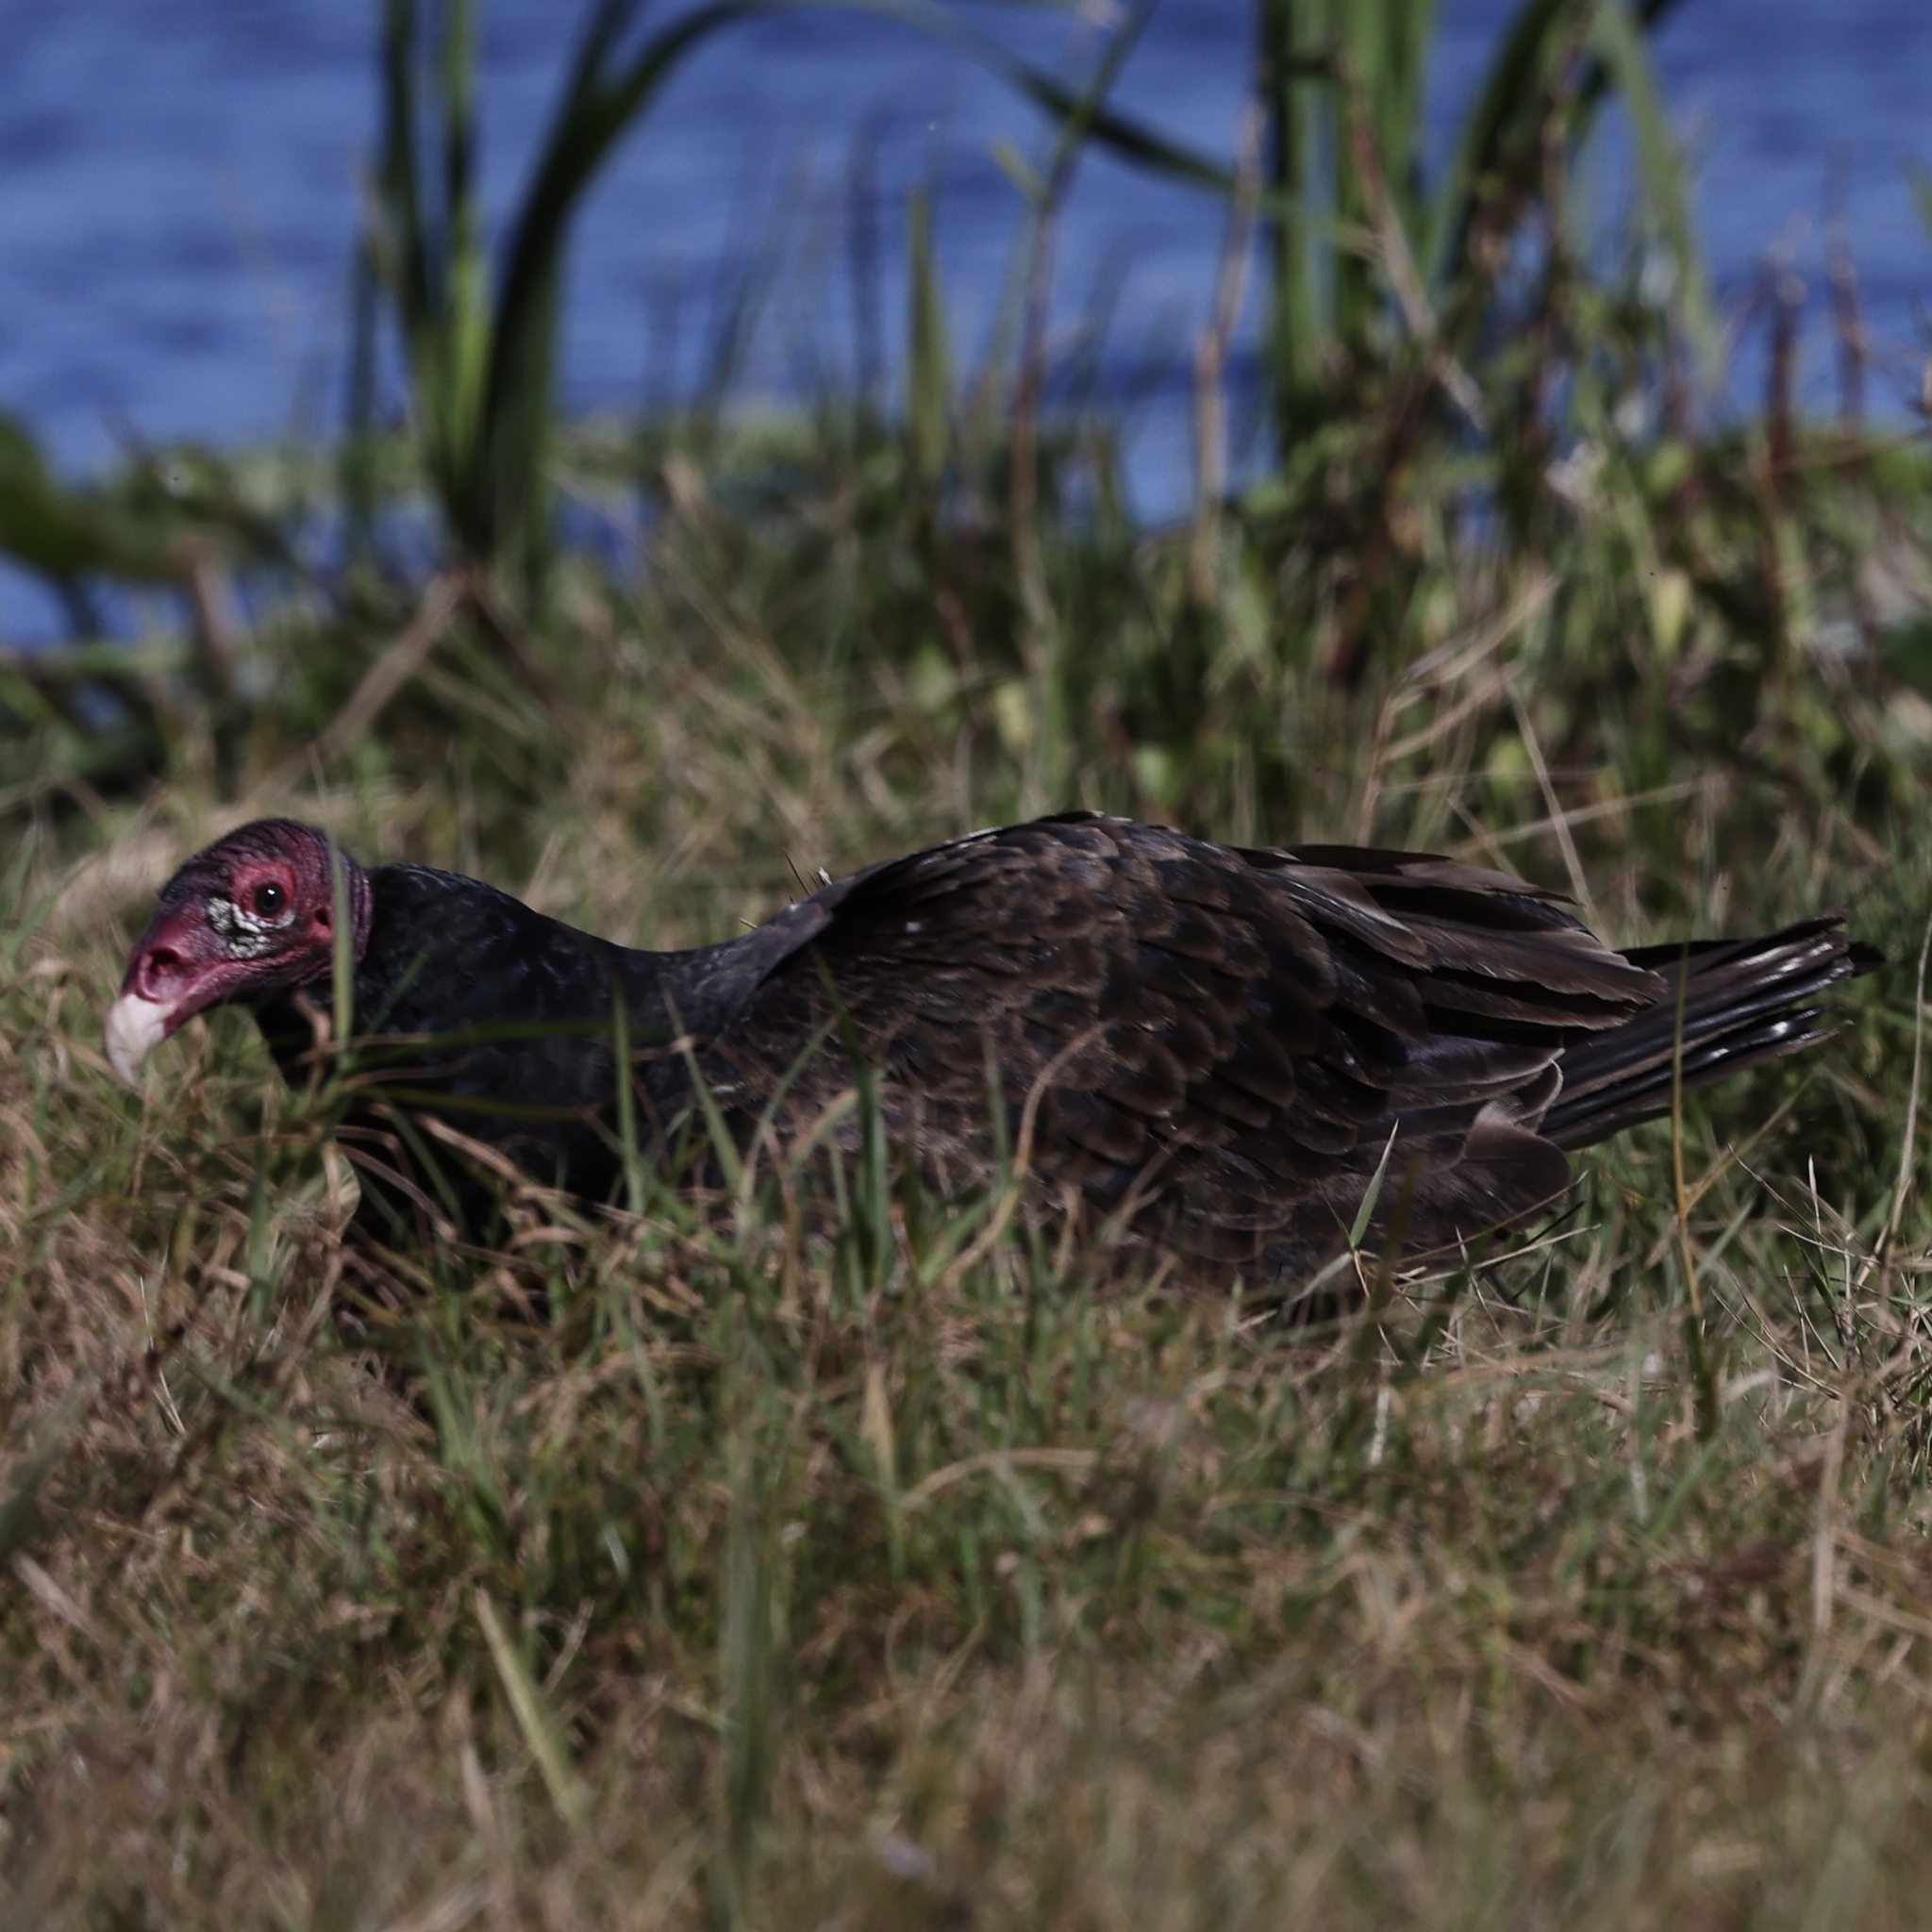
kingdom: Animalia
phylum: Chordata
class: Aves
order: Accipitriformes
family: Cathartidae
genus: Cathartes
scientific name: Cathartes aura
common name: Turkey vulture
